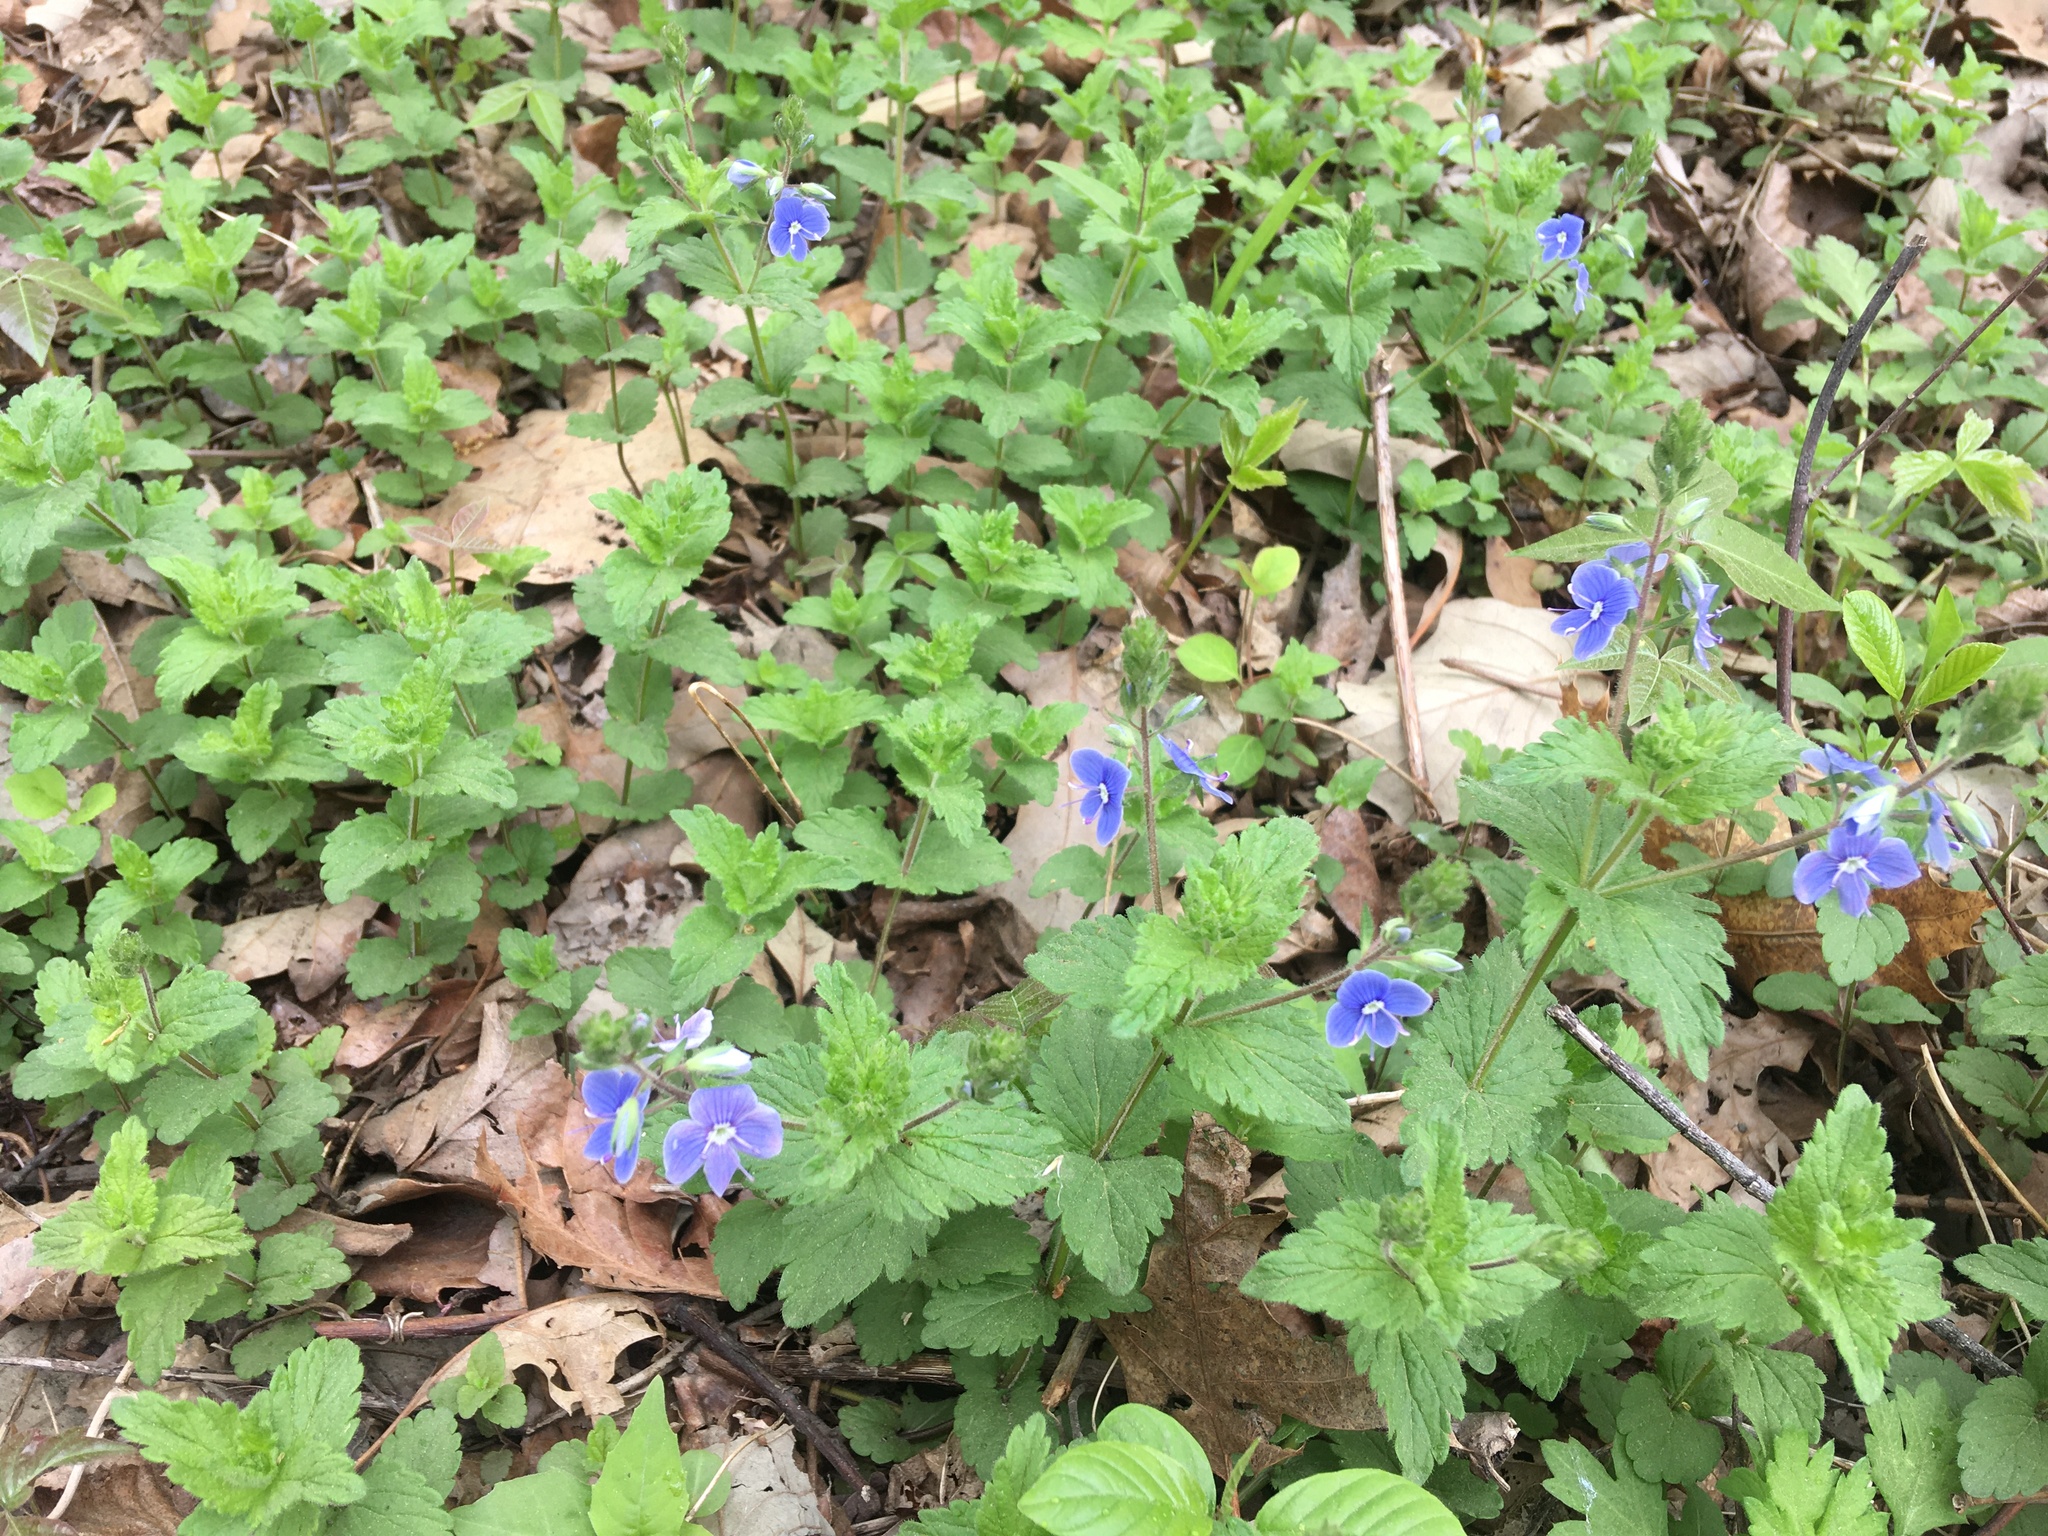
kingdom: Plantae
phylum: Tracheophyta
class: Magnoliopsida
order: Lamiales
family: Plantaginaceae
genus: Veronica
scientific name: Veronica chamaedrys
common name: Germander speedwell
